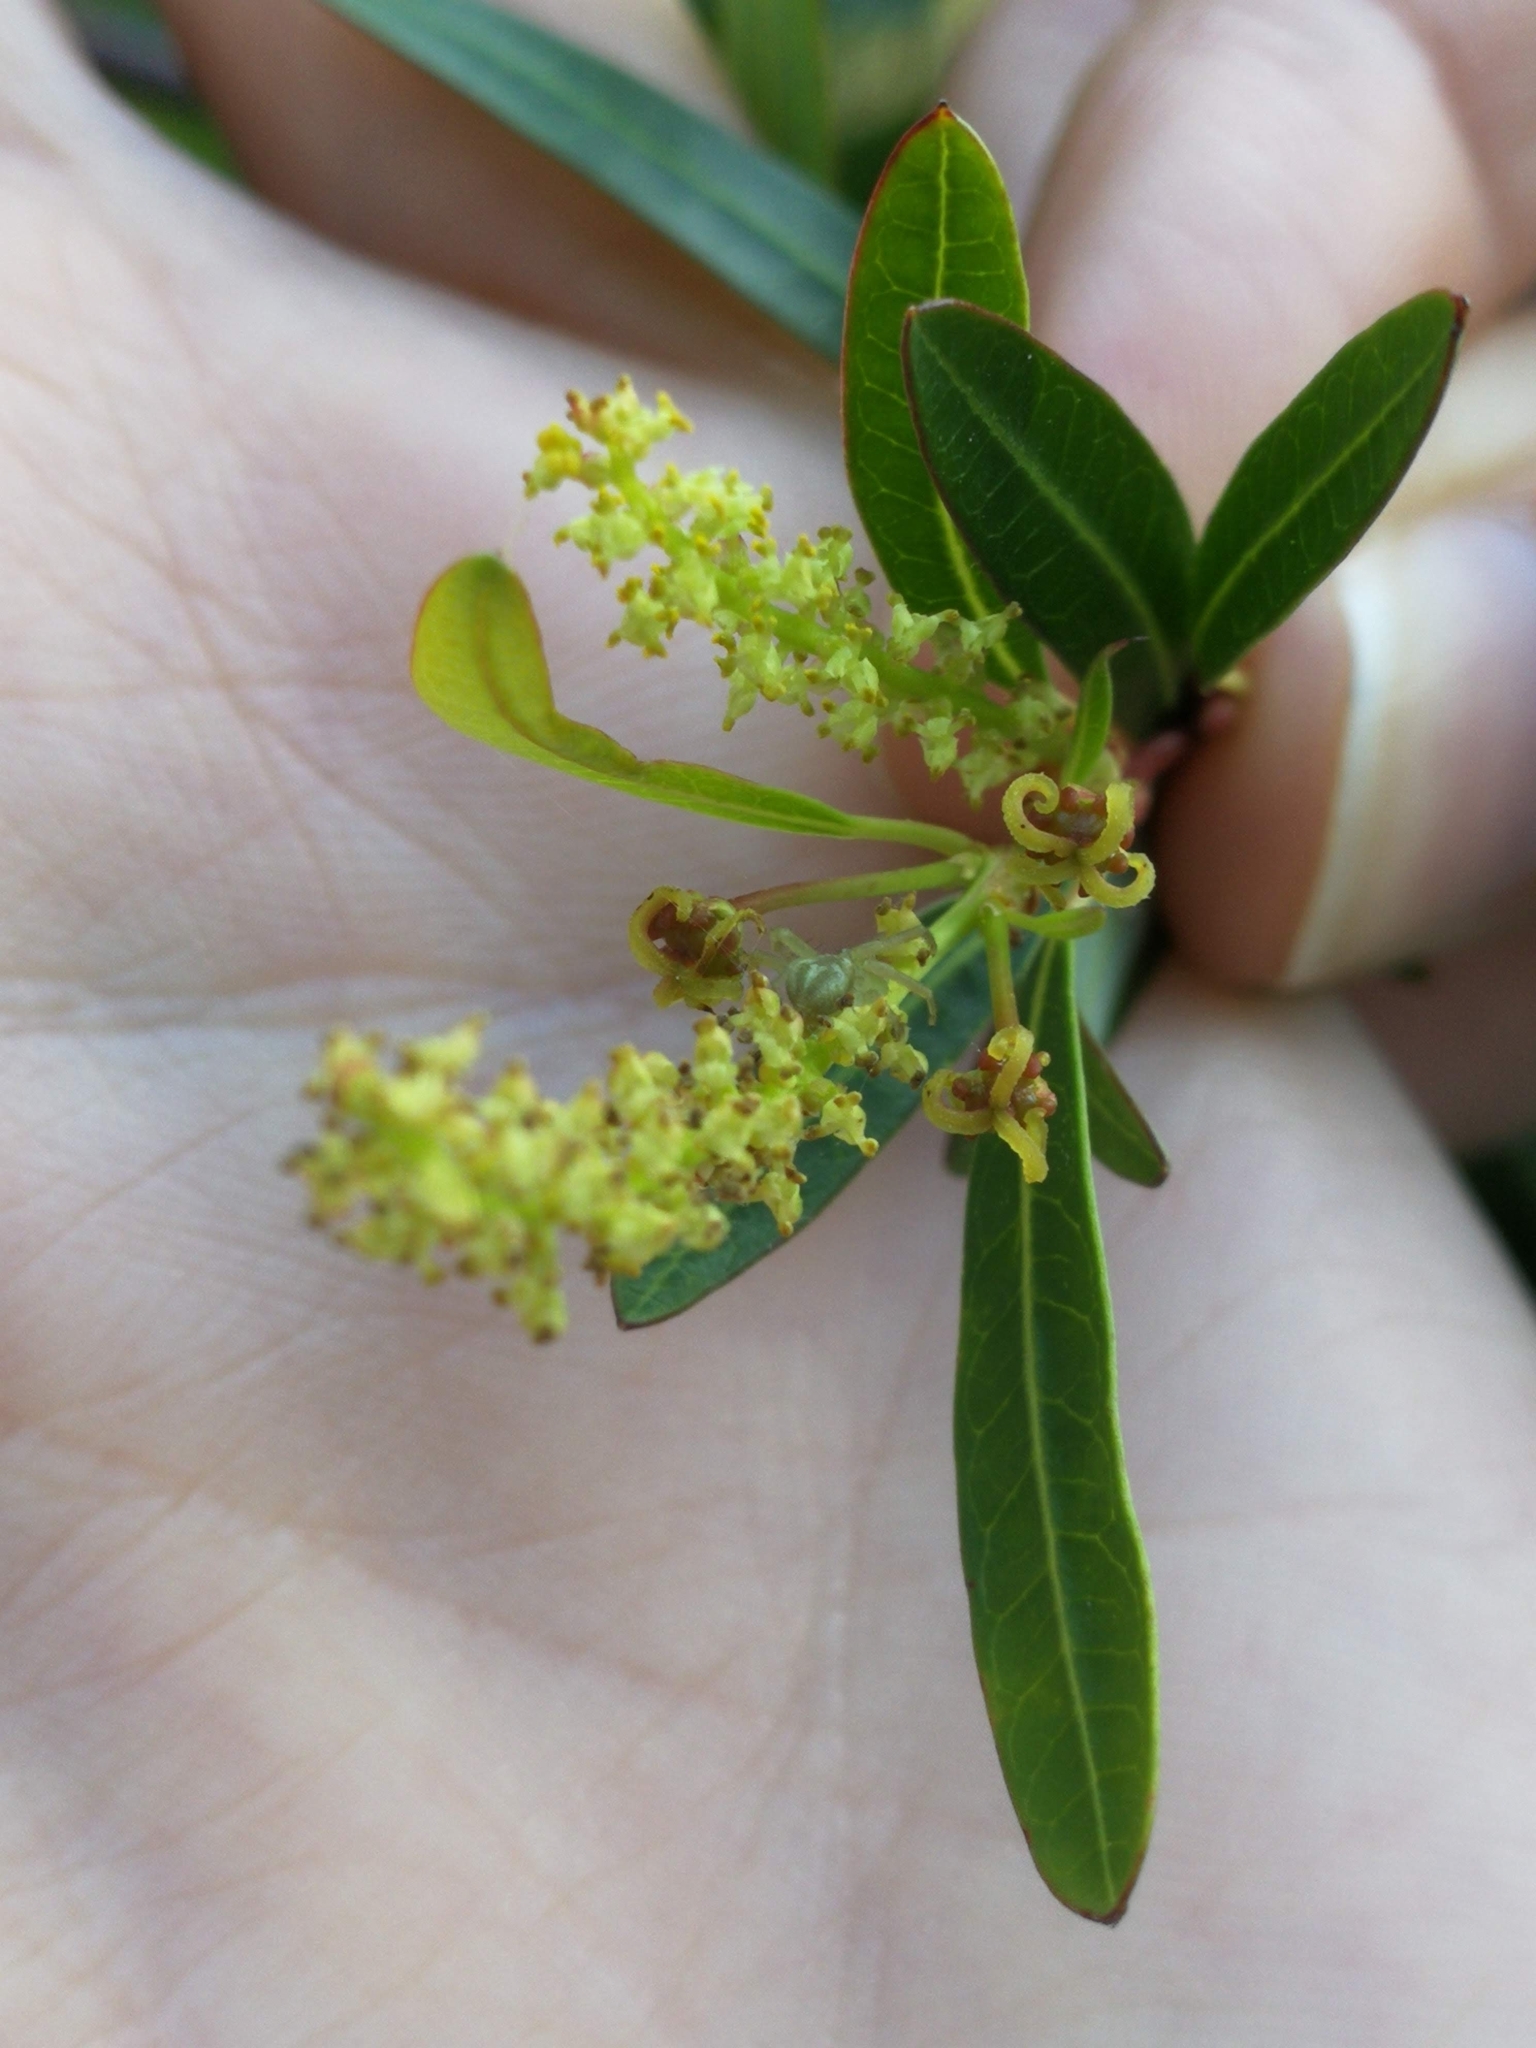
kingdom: Plantae
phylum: Tracheophyta
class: Magnoliopsida
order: Malpighiales
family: Euphorbiaceae
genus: Sebastiania
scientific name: Sebastiania schottiana
